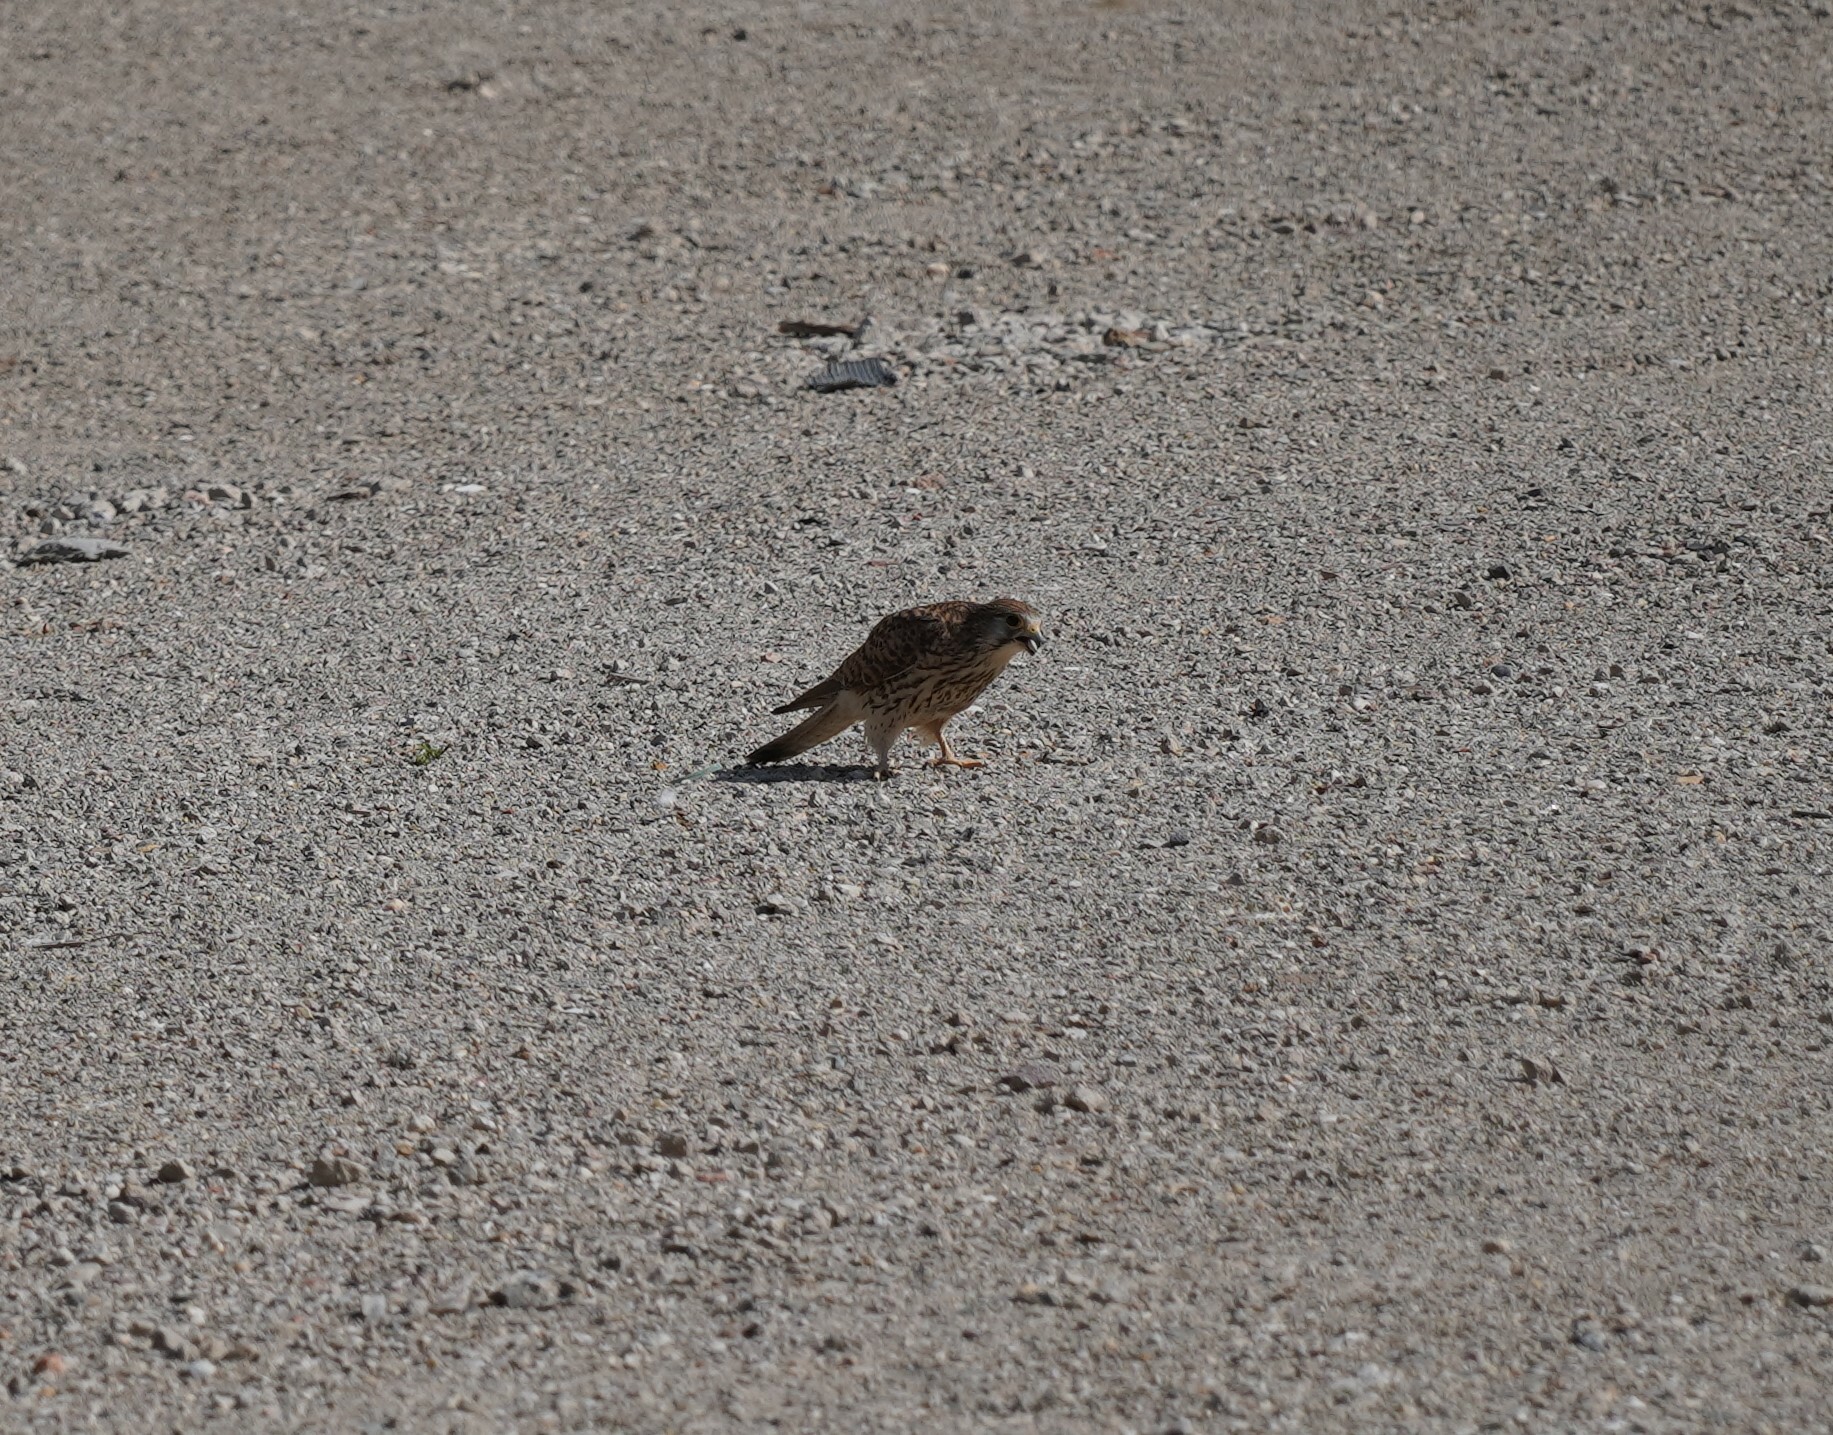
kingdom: Animalia
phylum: Chordata
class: Aves
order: Falconiformes
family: Falconidae
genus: Falco
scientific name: Falco tinnunculus
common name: Common kestrel
